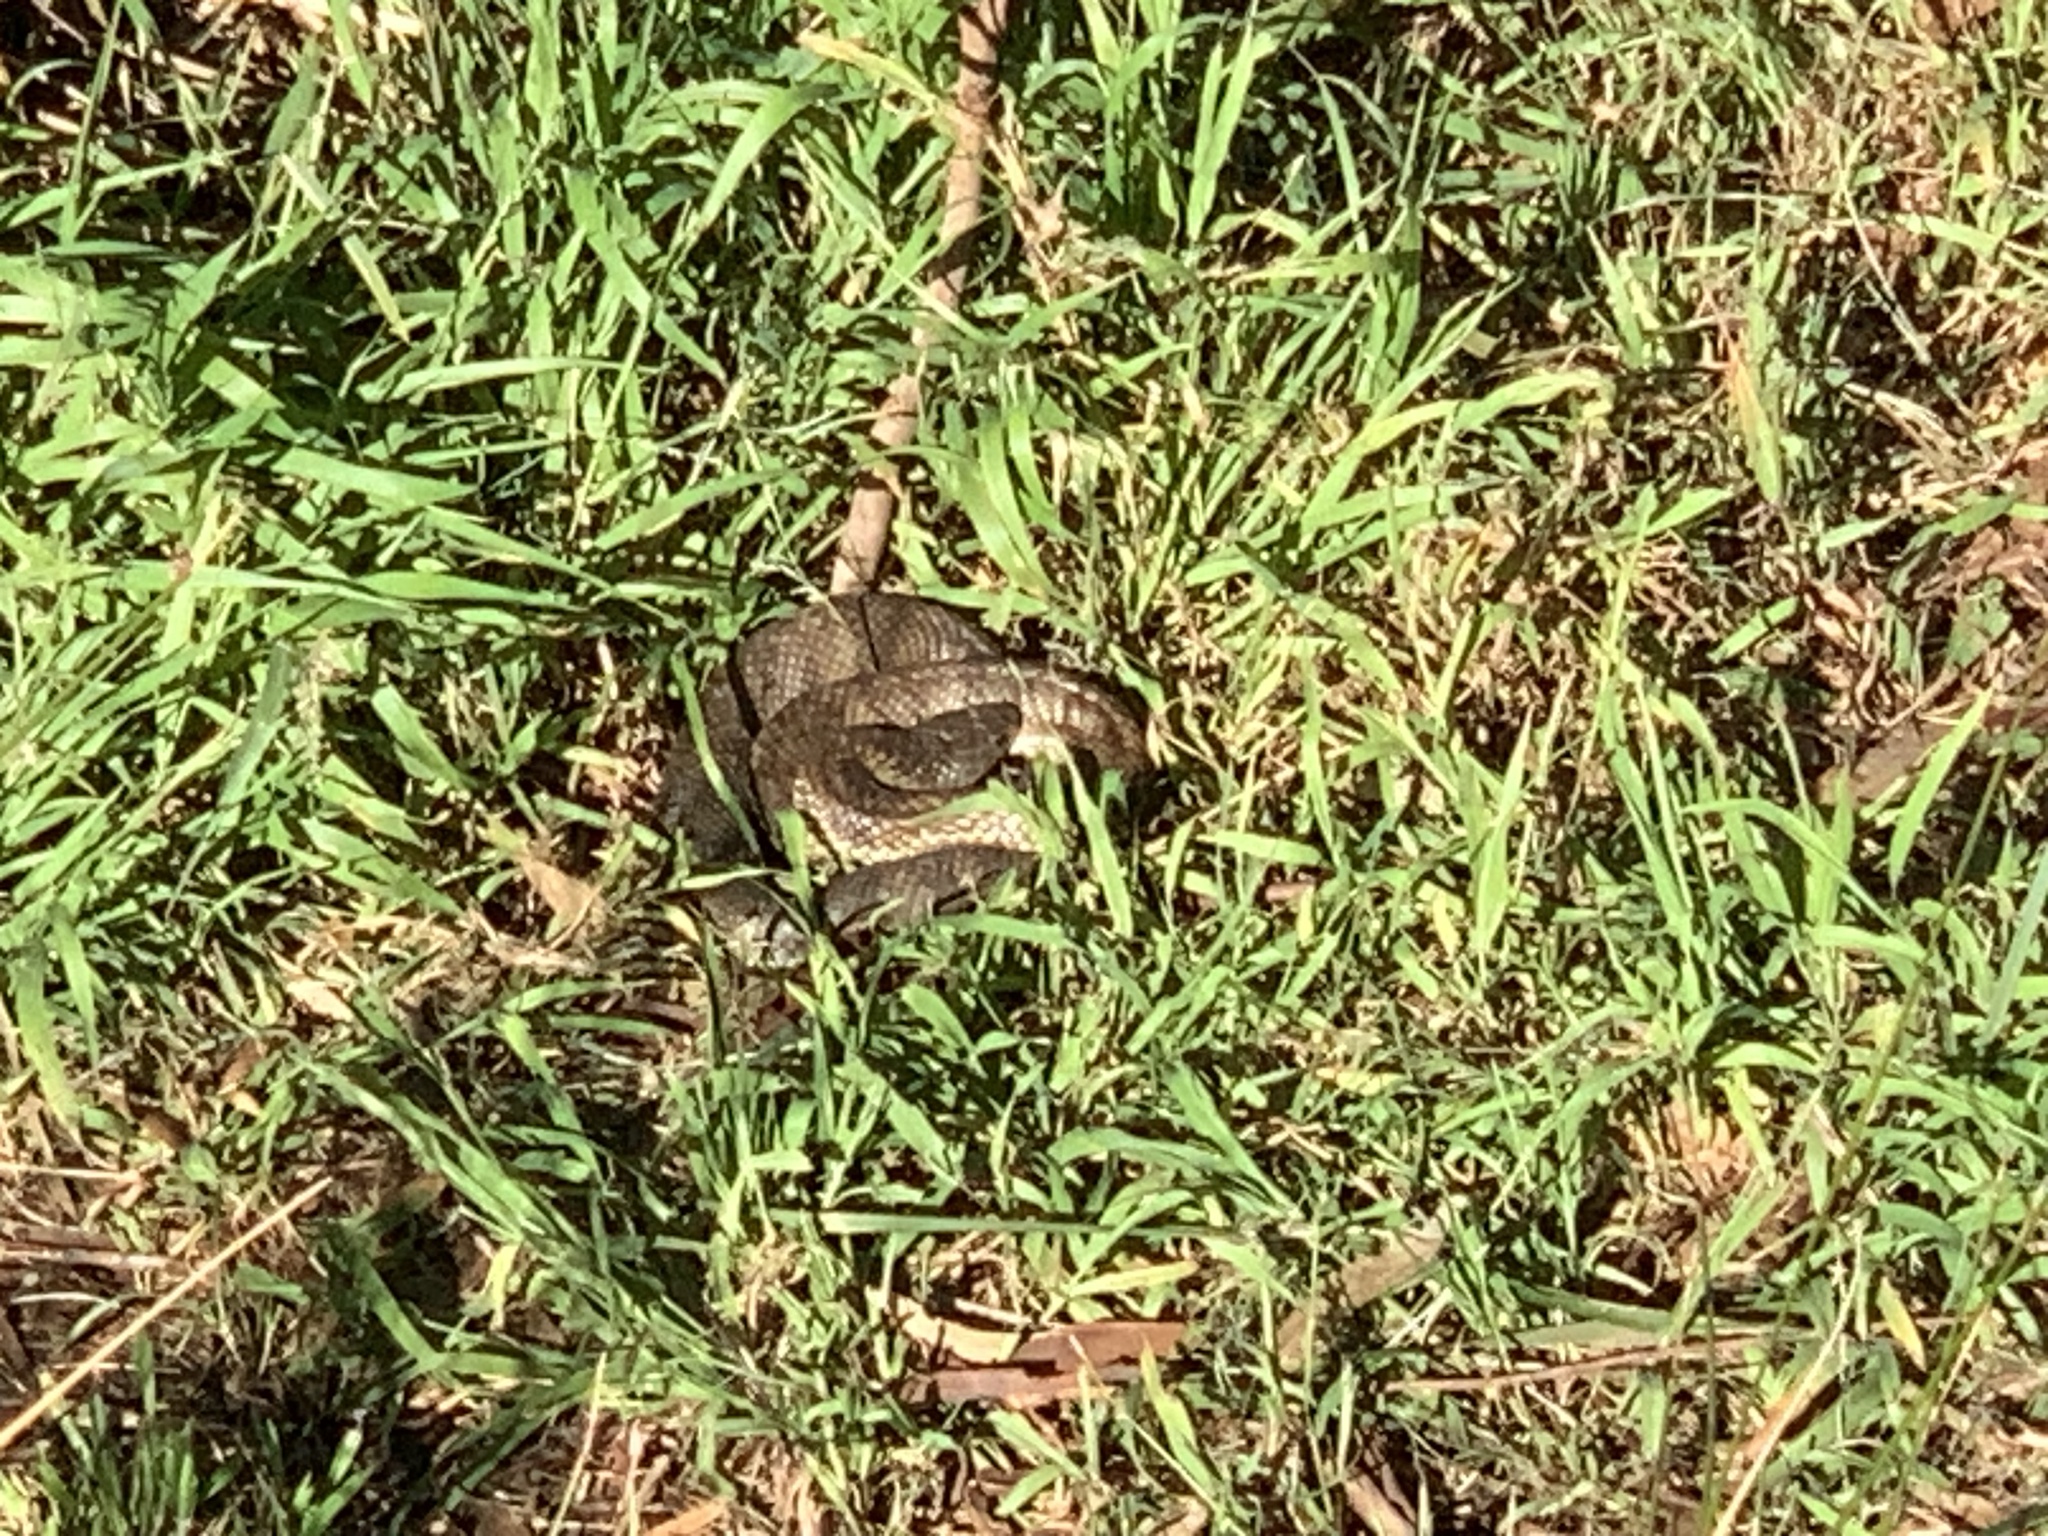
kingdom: Animalia
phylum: Chordata
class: Squamata
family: Elapidae
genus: Notechis
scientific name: Notechis scutatus
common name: Mainland tiger snake
